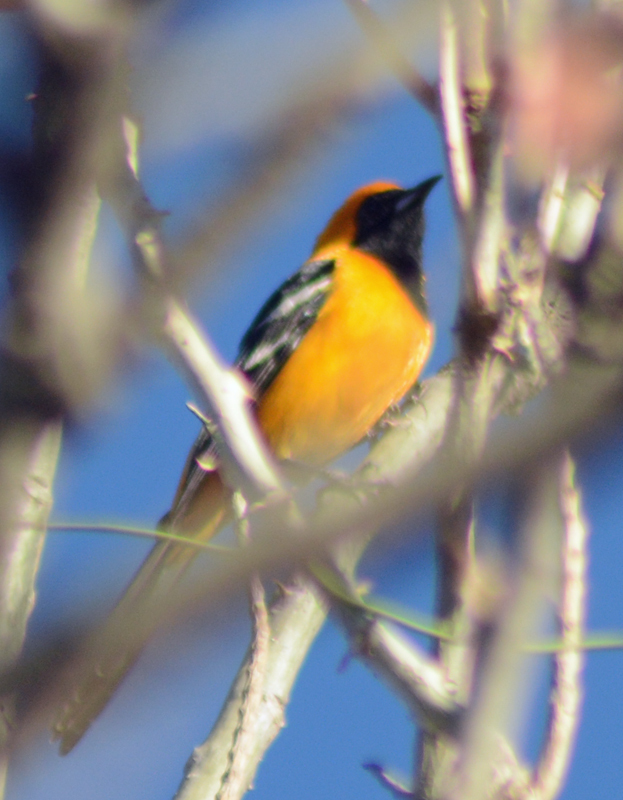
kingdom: Animalia
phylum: Chordata
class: Aves
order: Passeriformes
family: Icteridae
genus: Icterus
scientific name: Icterus cucullatus
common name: Hooded oriole
